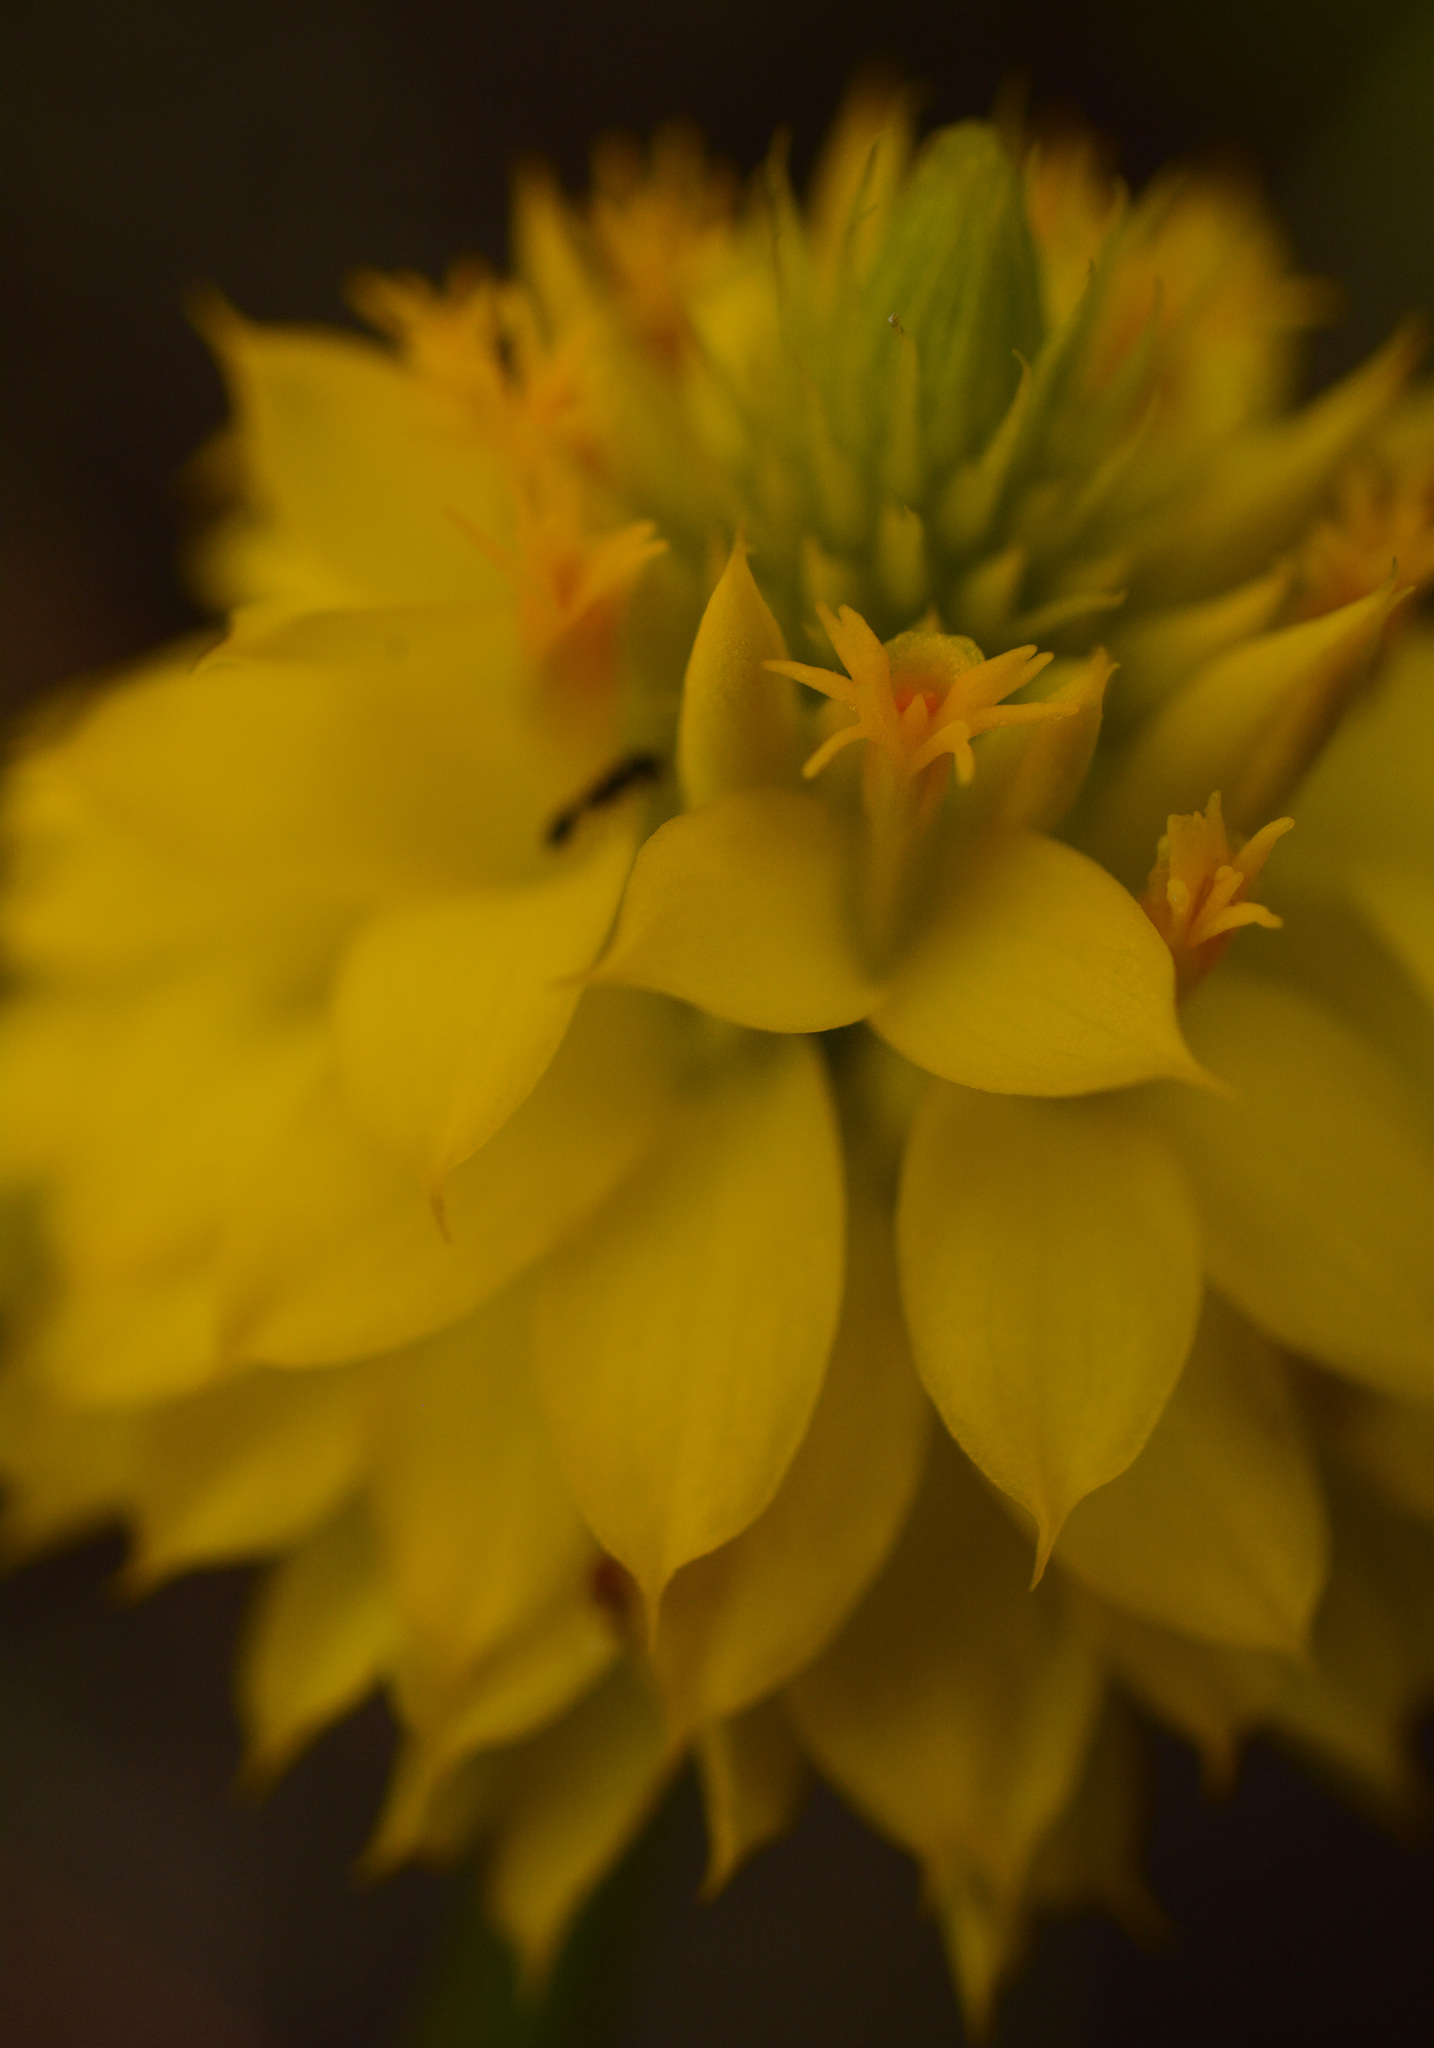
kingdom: Plantae
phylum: Tracheophyta
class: Magnoliopsida
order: Fabales
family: Polygalaceae
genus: Polygala
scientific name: Polygala rugelii
